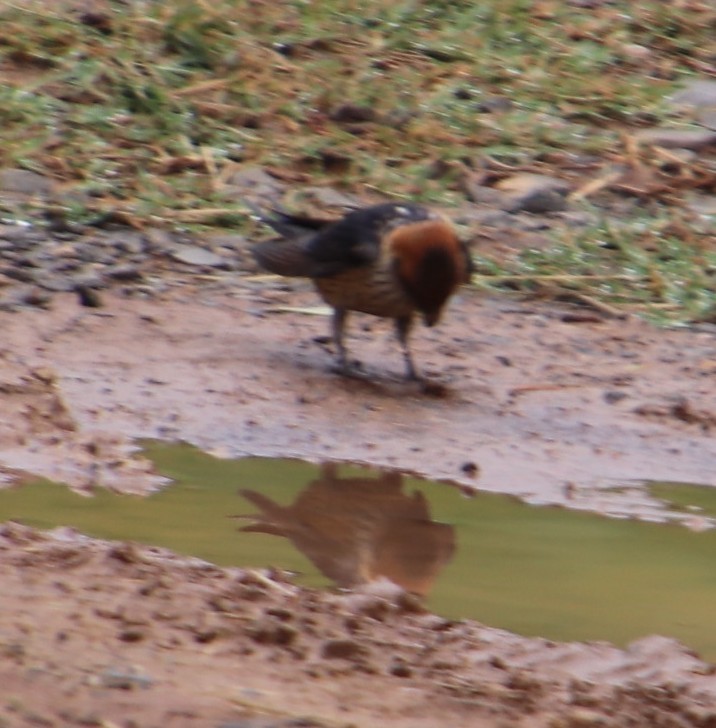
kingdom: Animalia
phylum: Chordata
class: Aves
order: Passeriformes
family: Hirundinidae
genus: Cecropis
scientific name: Cecropis cucullata
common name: Greater striped-swallow
